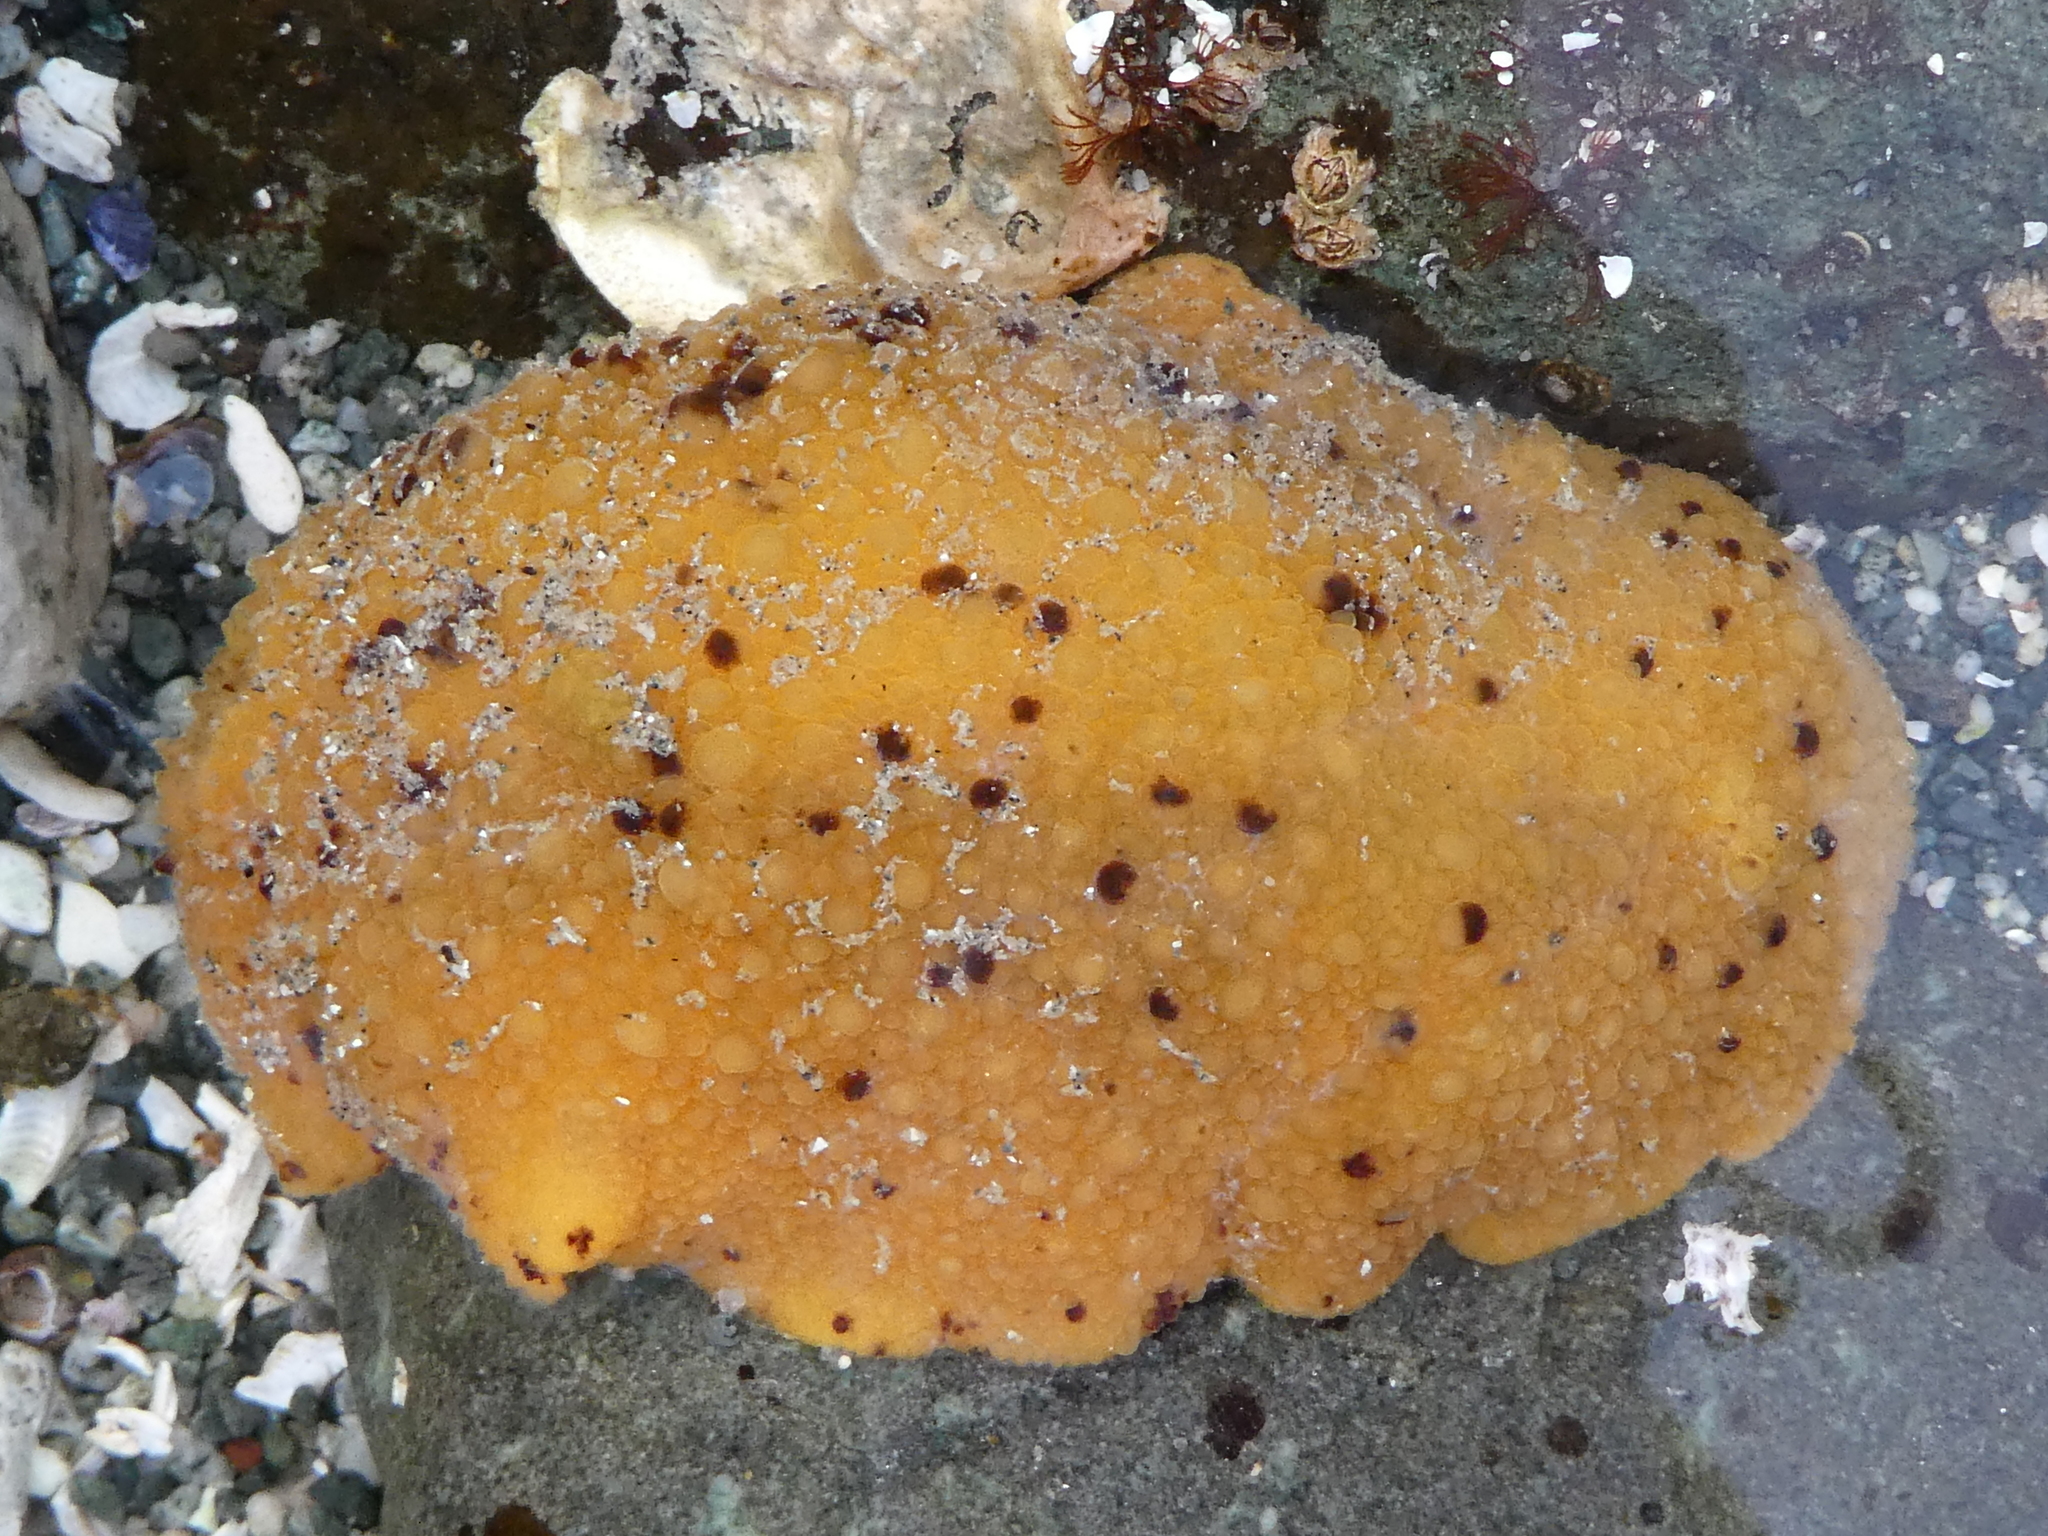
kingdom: Animalia
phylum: Mollusca
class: Gastropoda
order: Nudibranchia
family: Dorididae
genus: Doris
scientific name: Doris montereyensis
